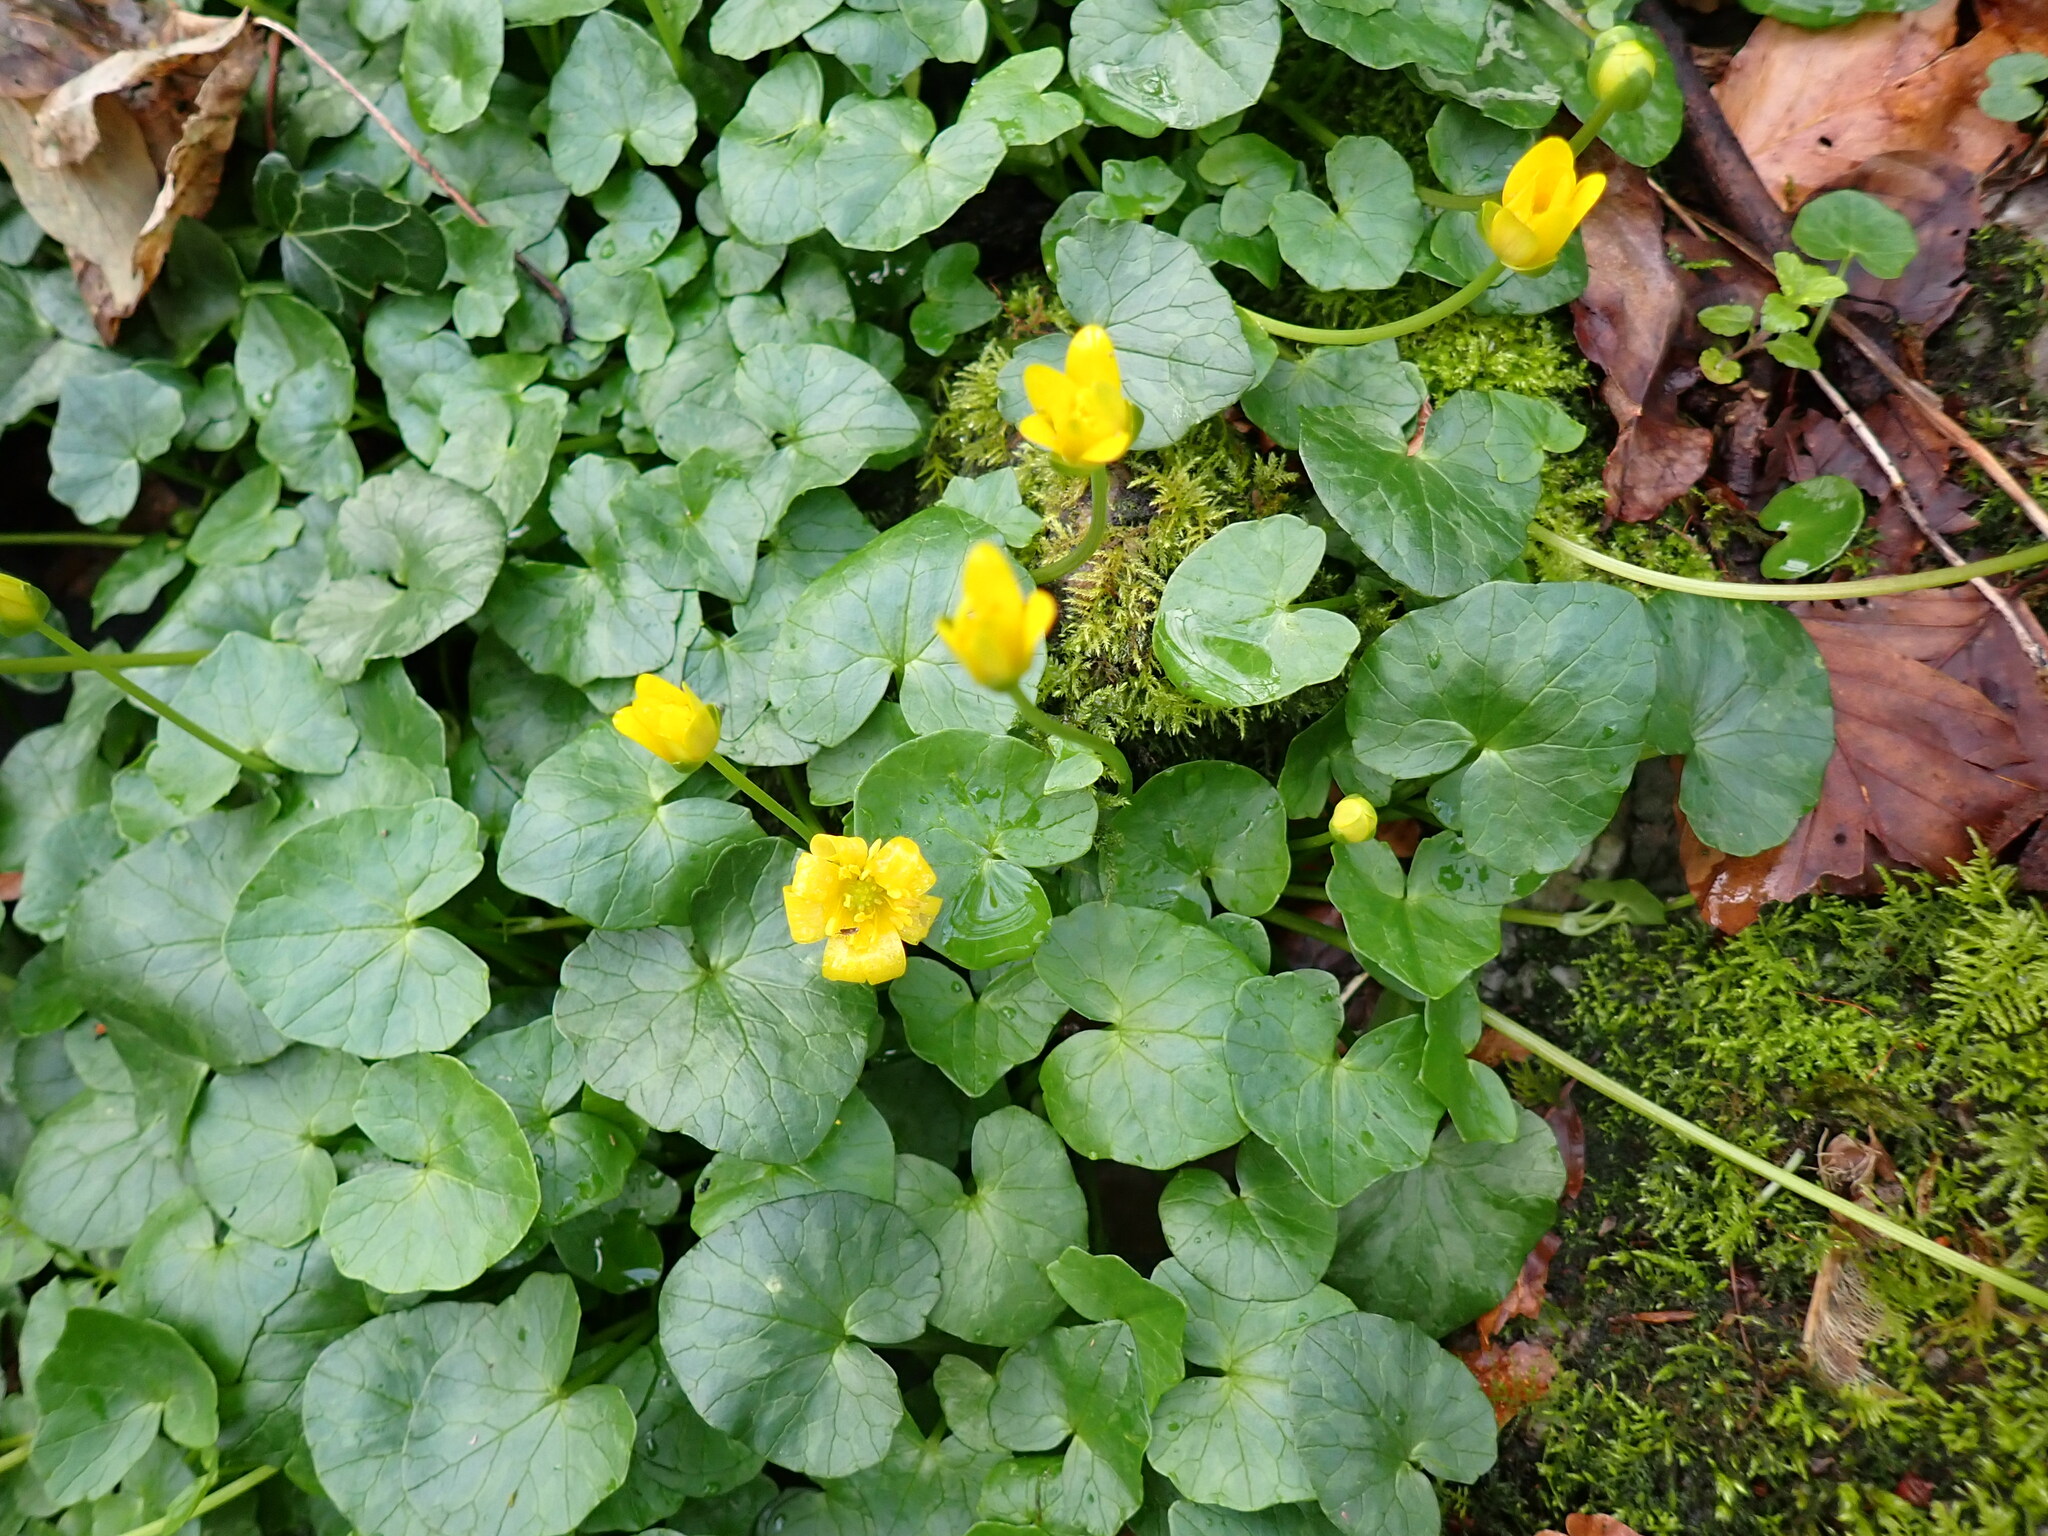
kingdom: Plantae
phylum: Tracheophyta
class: Magnoliopsida
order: Ranunculales
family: Ranunculaceae
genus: Caltha
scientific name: Caltha palustris
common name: Marsh marigold
